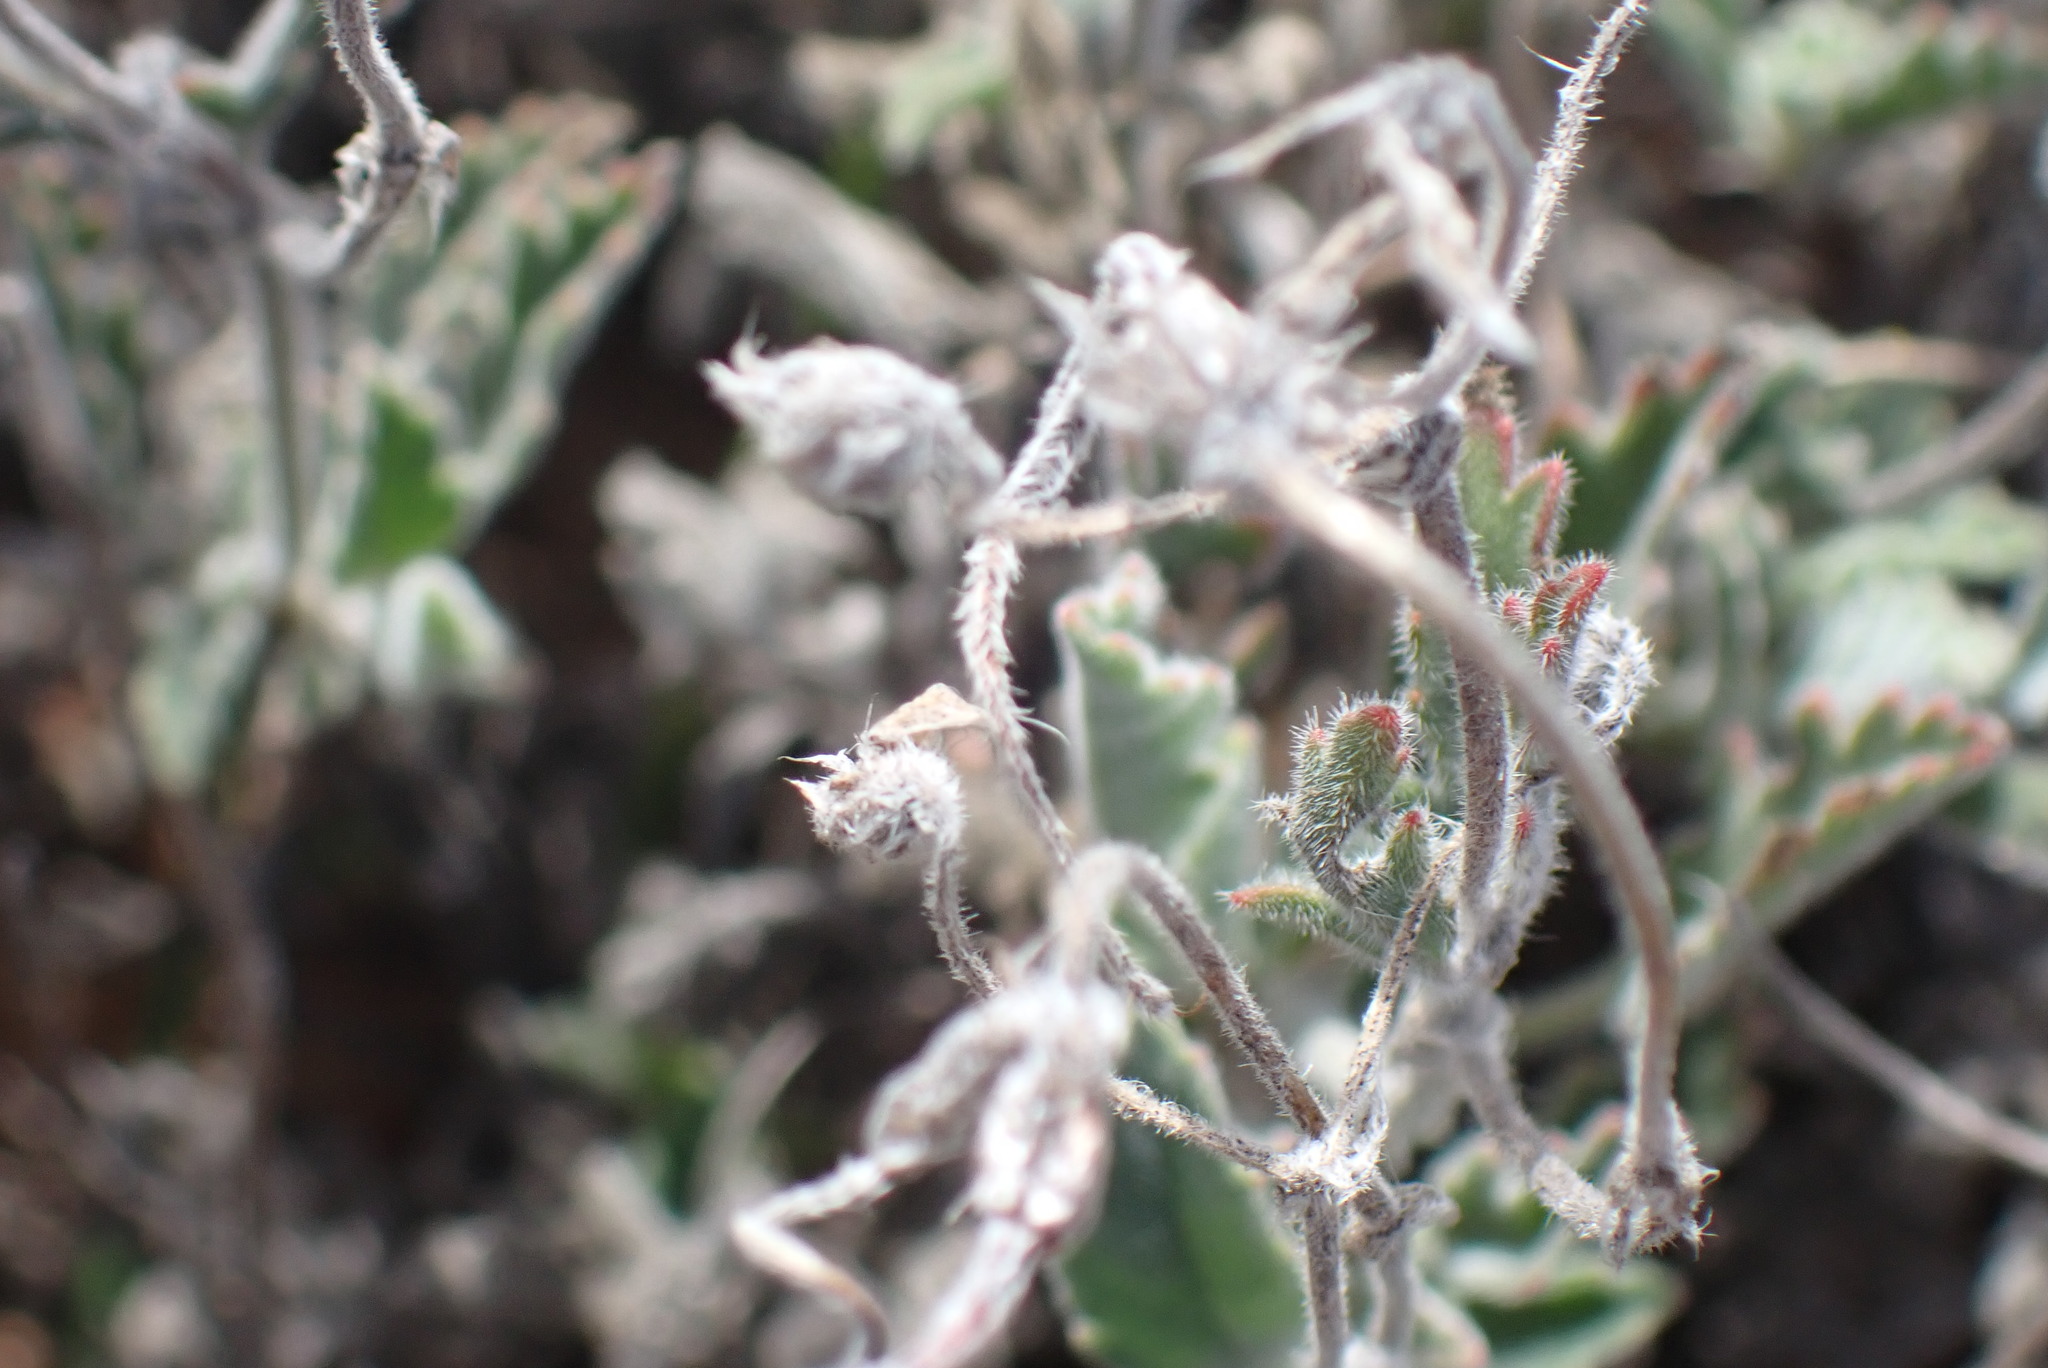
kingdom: Plantae
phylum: Tracheophyta
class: Magnoliopsida
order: Geraniales
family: Geraniaceae
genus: Pelargonium
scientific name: Pelargonium tricolor
